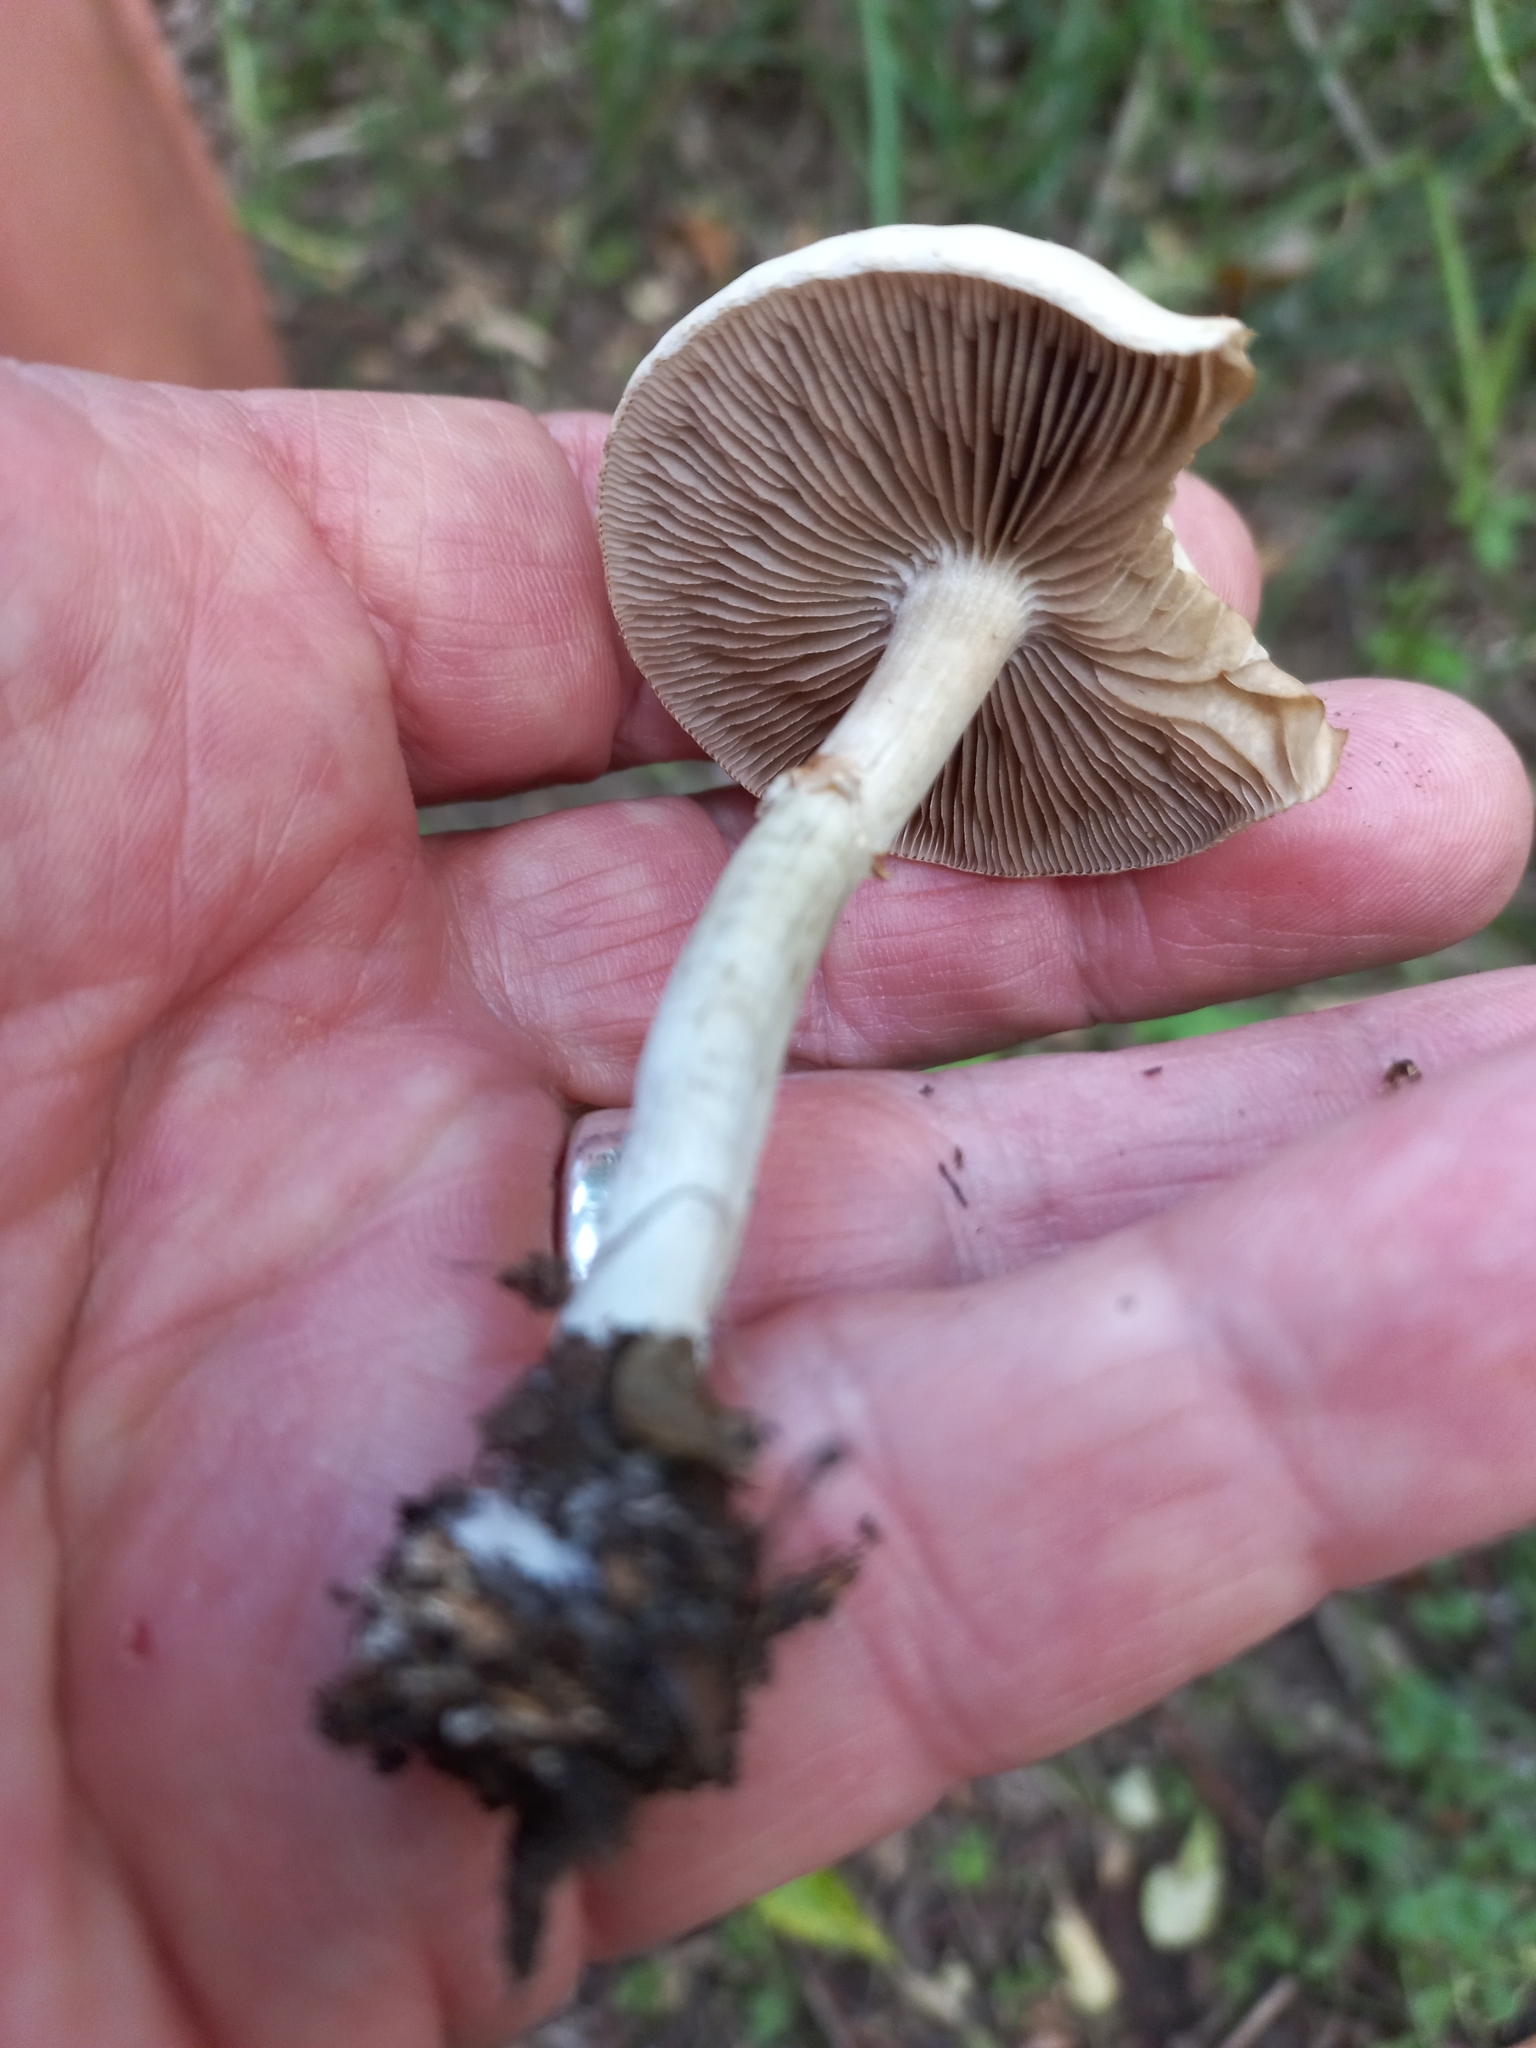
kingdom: Fungi
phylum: Basidiomycota
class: Agaricomycetes
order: Agaricales
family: Strophariaceae
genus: Agrocybe
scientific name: Agrocybe praecox
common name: Spring fieldcap
